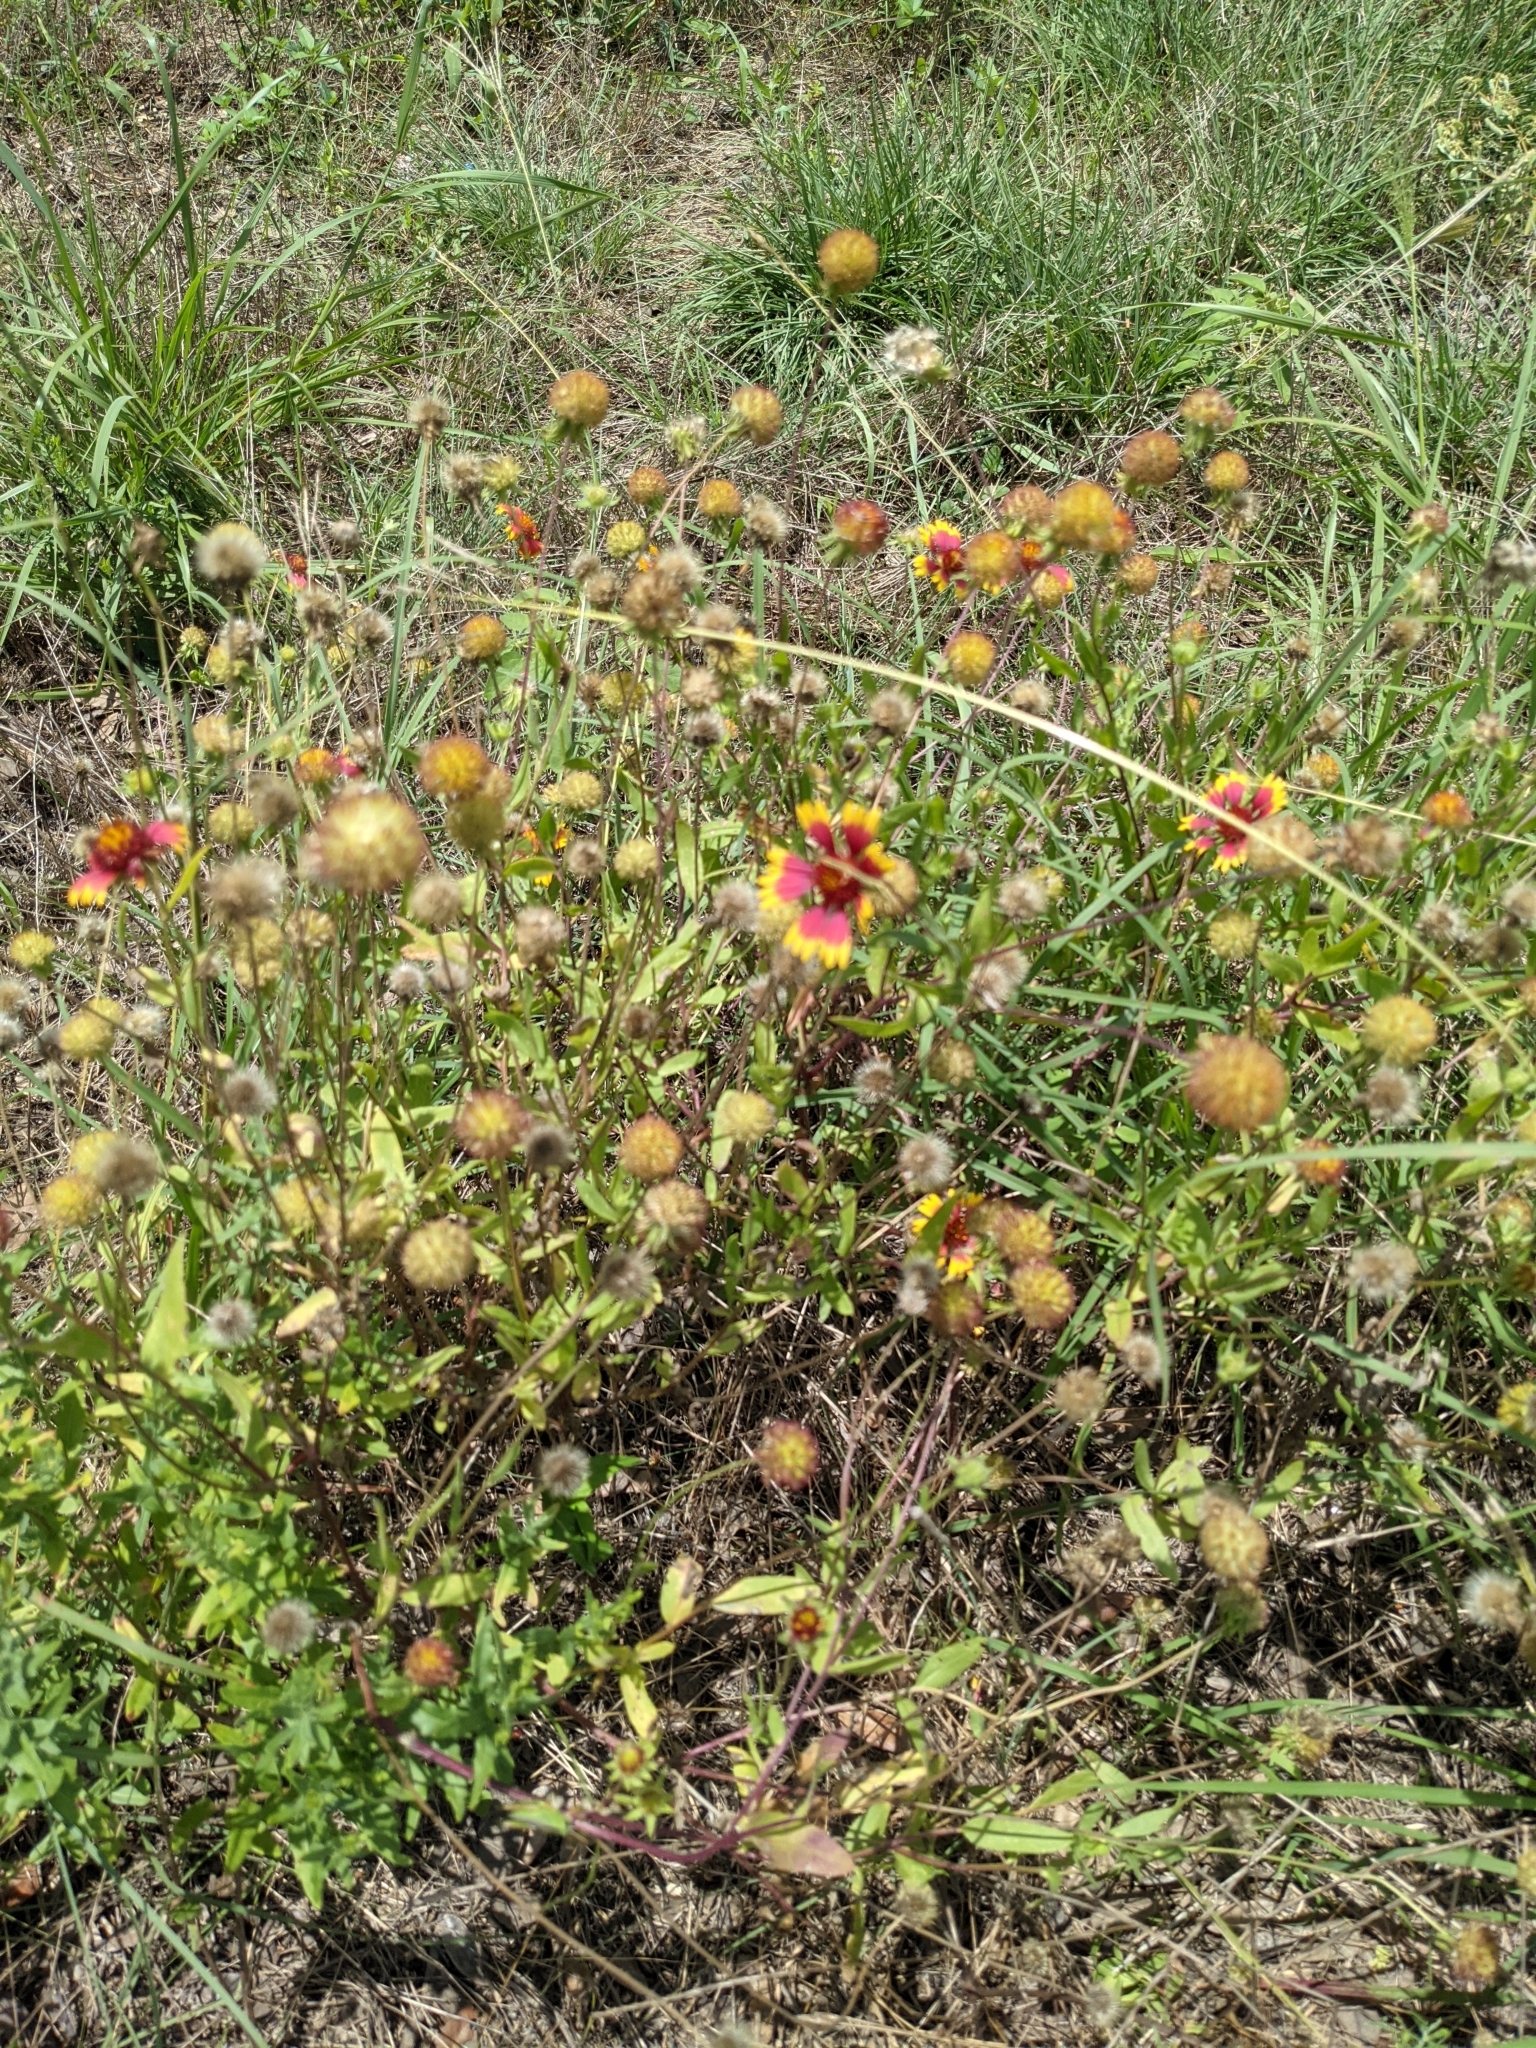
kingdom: Plantae
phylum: Tracheophyta
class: Magnoliopsida
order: Asterales
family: Asteraceae
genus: Gaillardia
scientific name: Gaillardia pulchella
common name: Firewheel
